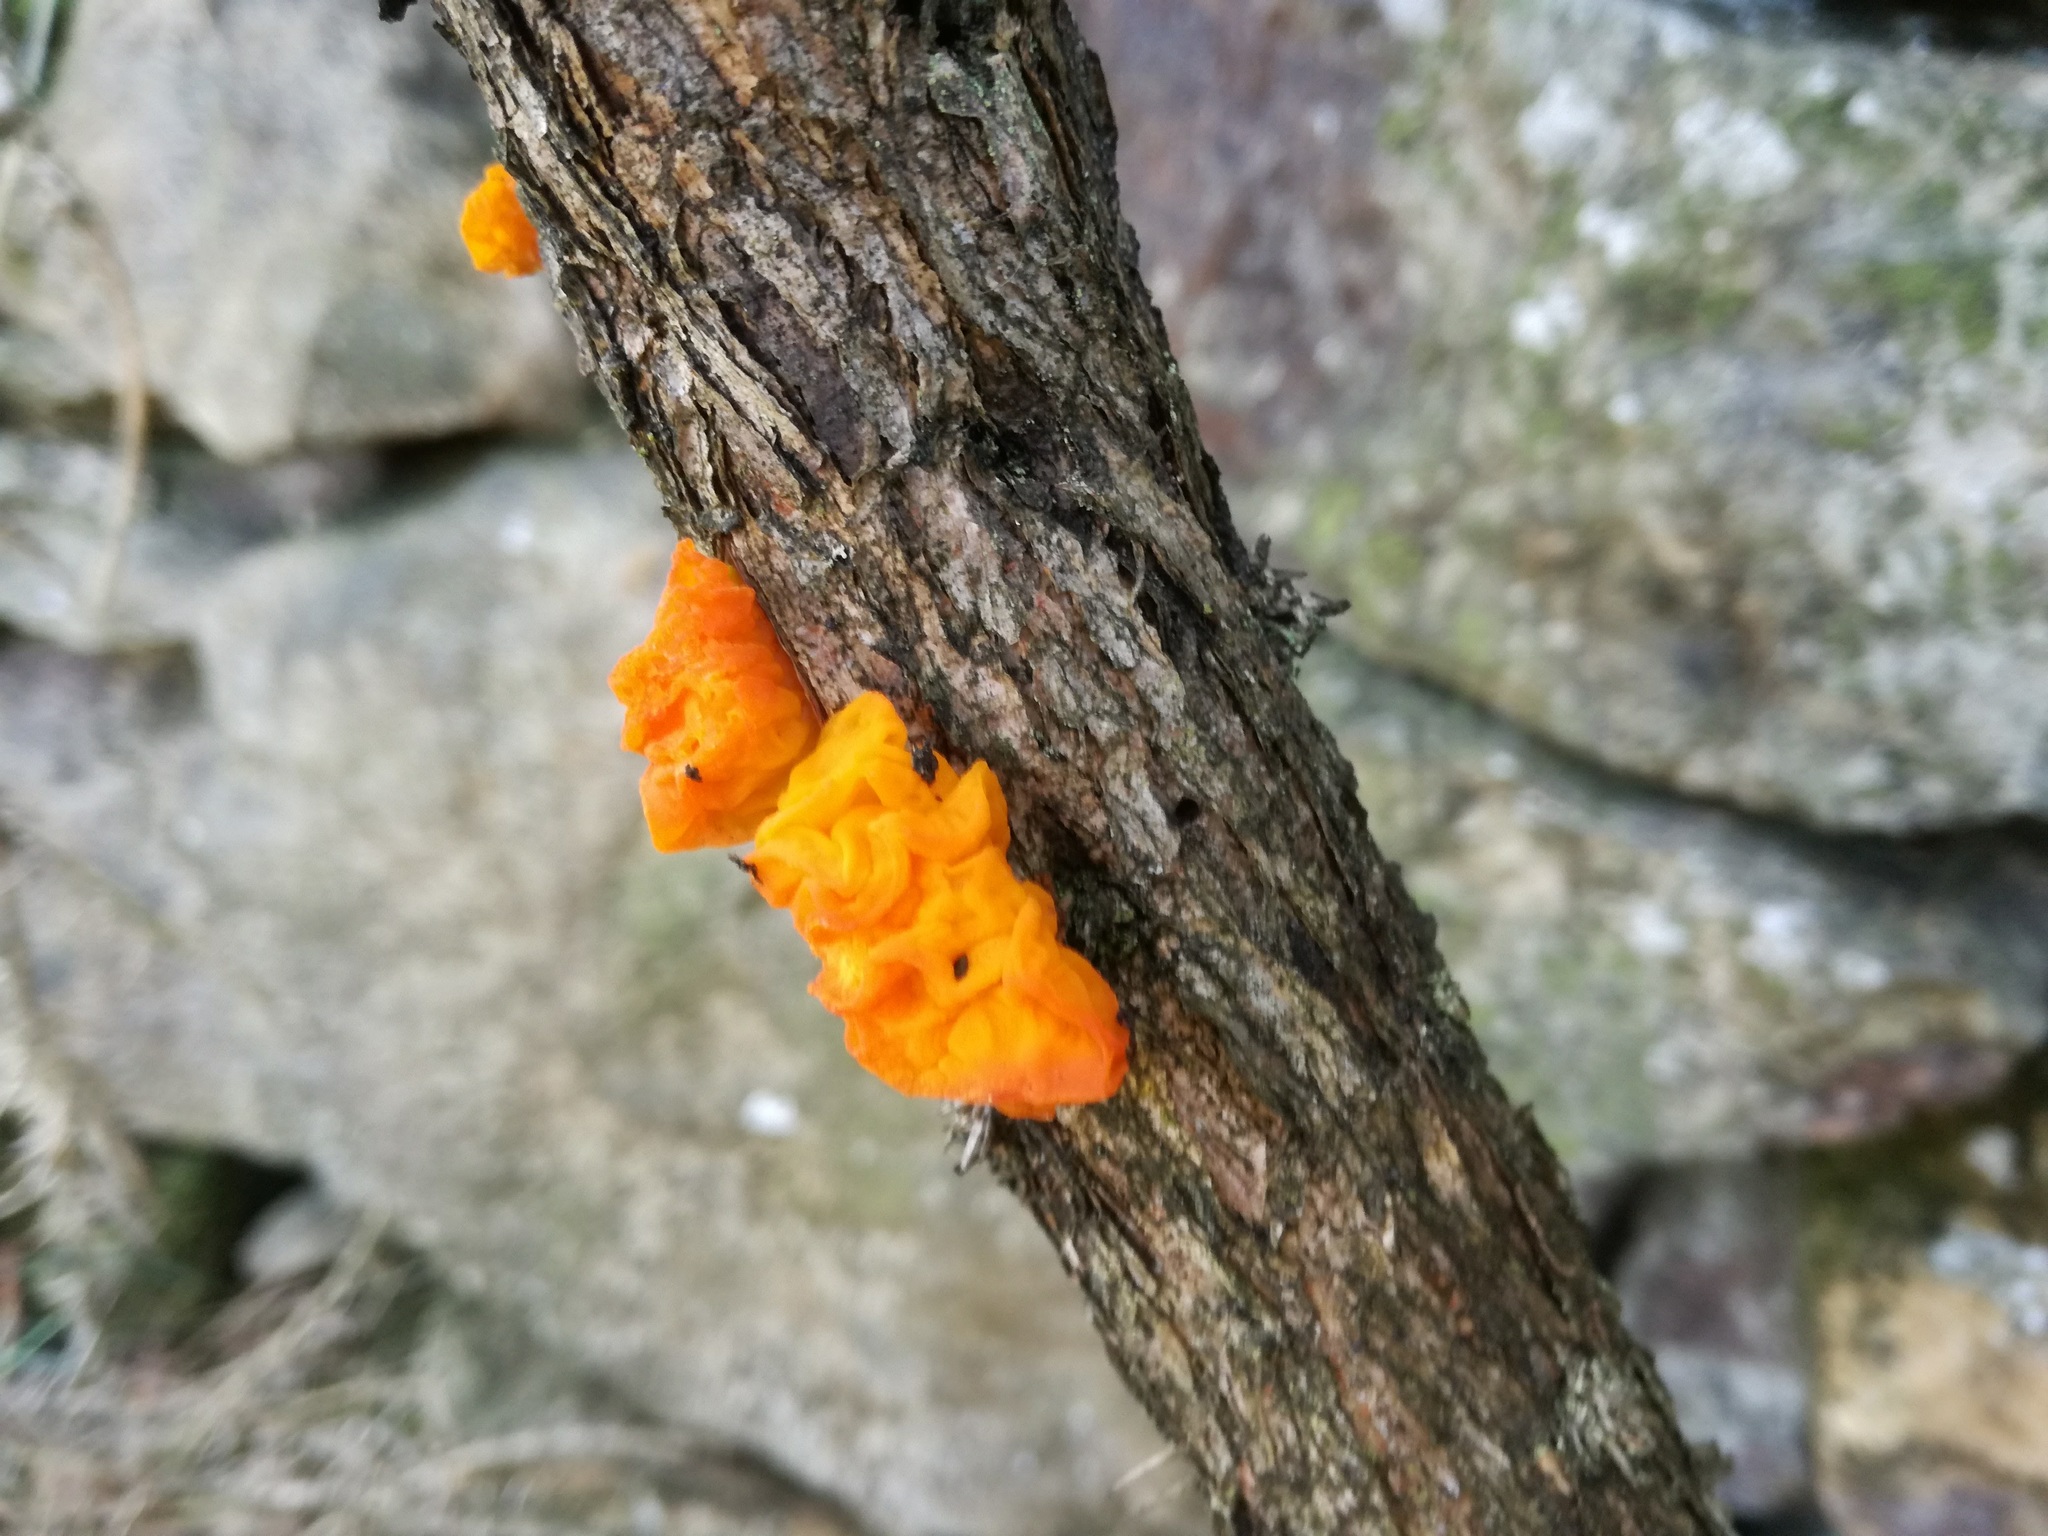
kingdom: Fungi
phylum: Basidiomycota
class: Tremellomycetes
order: Tremellales
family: Tremellaceae
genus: Tremella
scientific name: Tremella mesenterica
